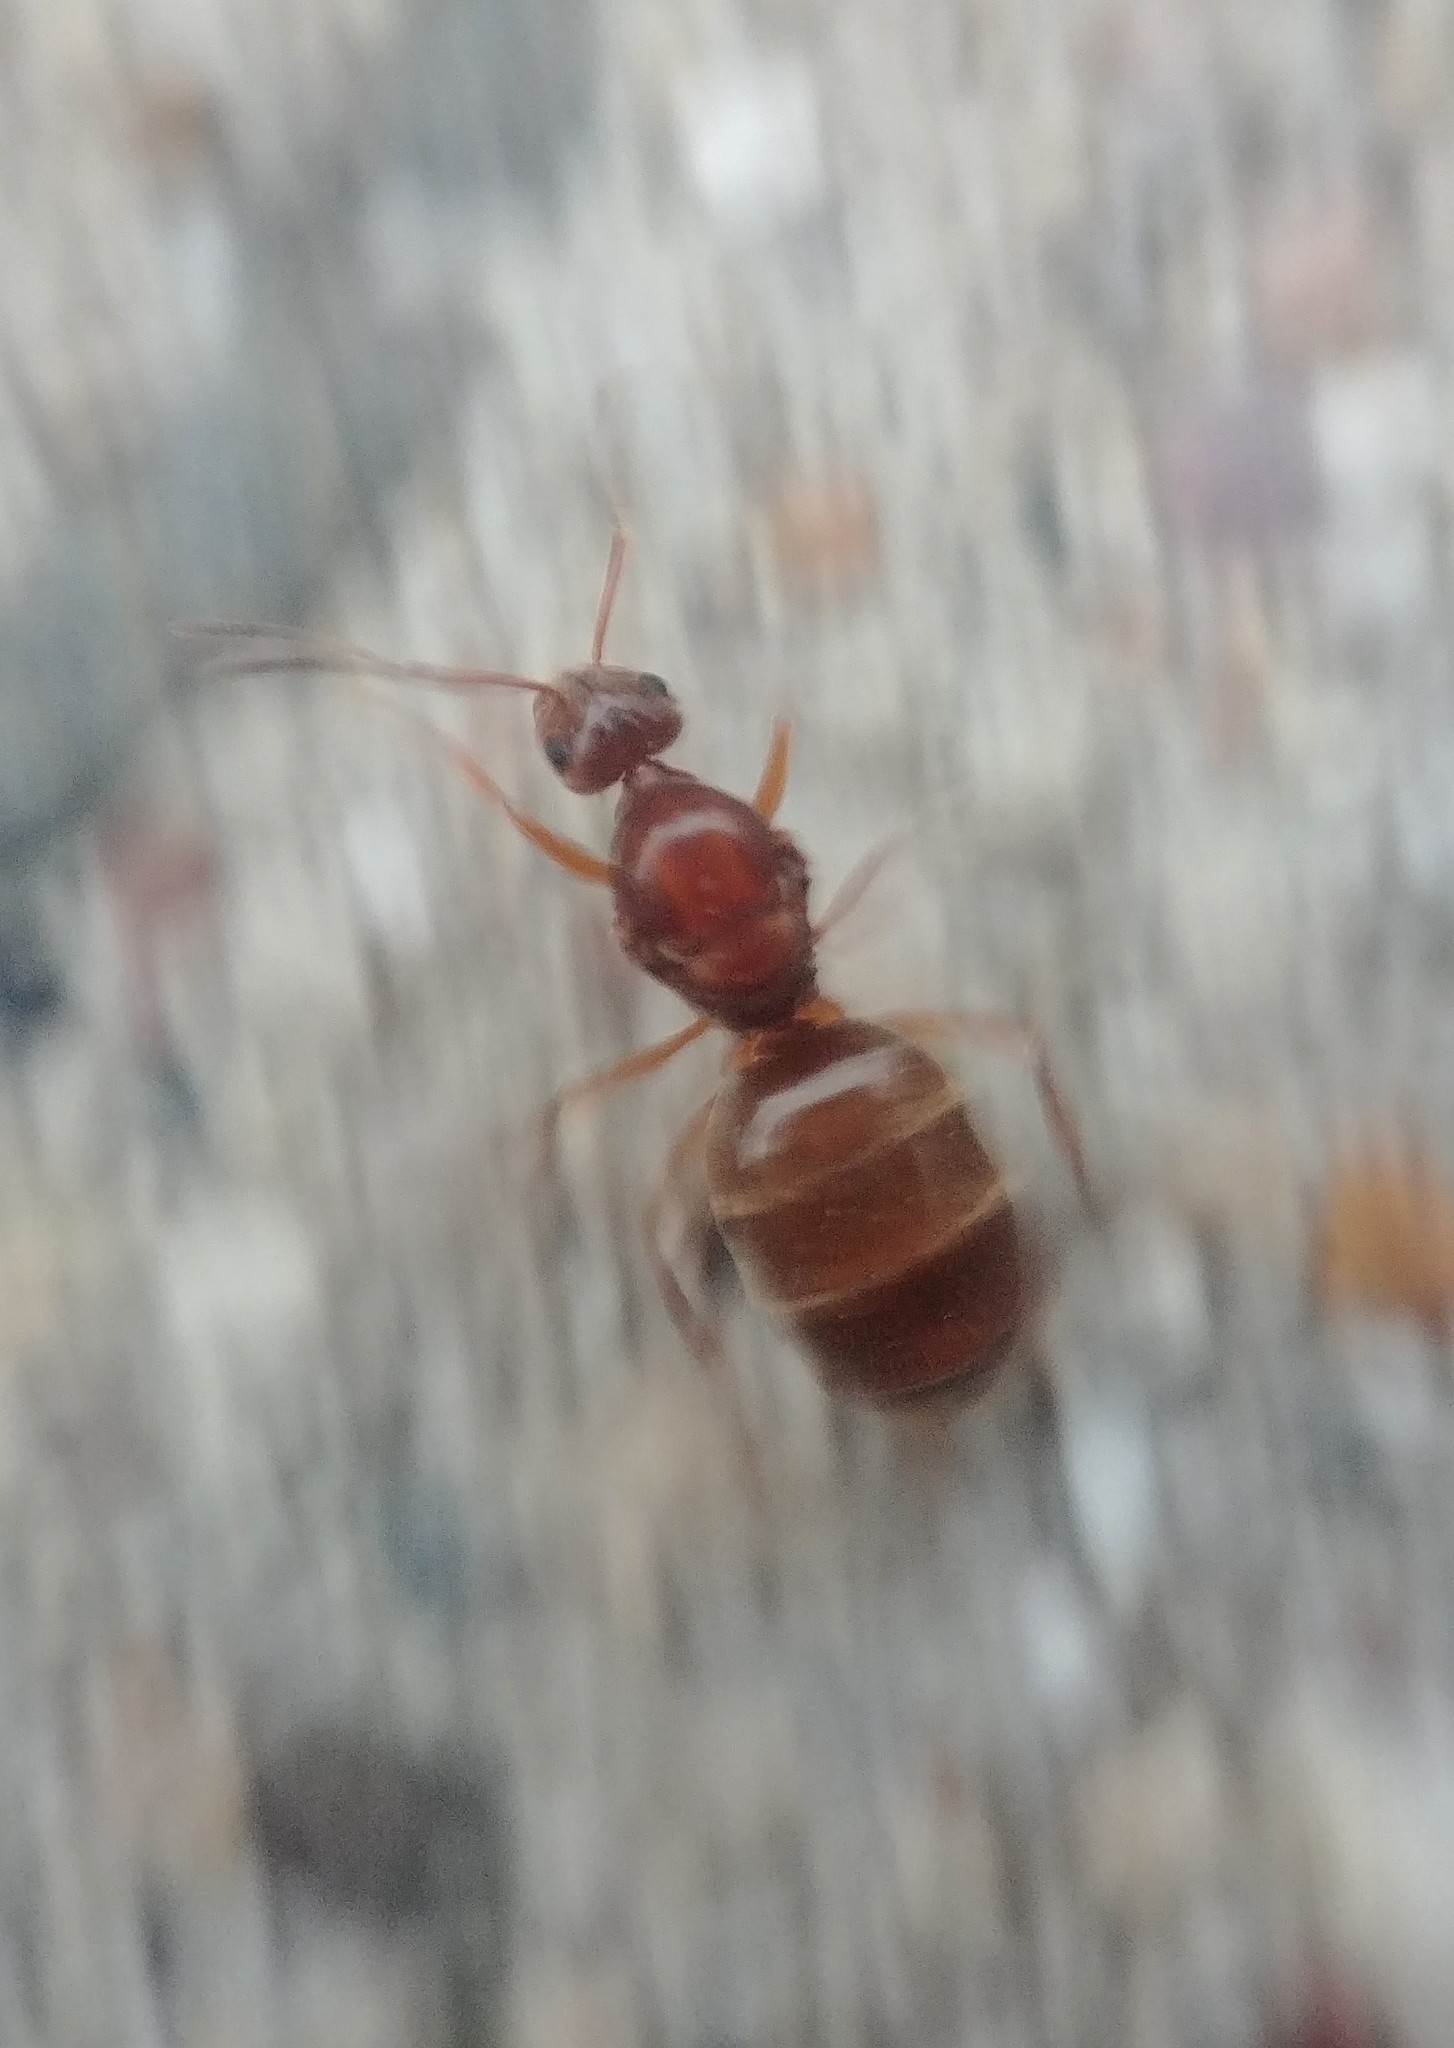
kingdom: Animalia
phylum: Arthropoda
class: Insecta
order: Hymenoptera
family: Formicidae
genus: Prenolepis
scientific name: Prenolepis imparis
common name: Small honey ant
